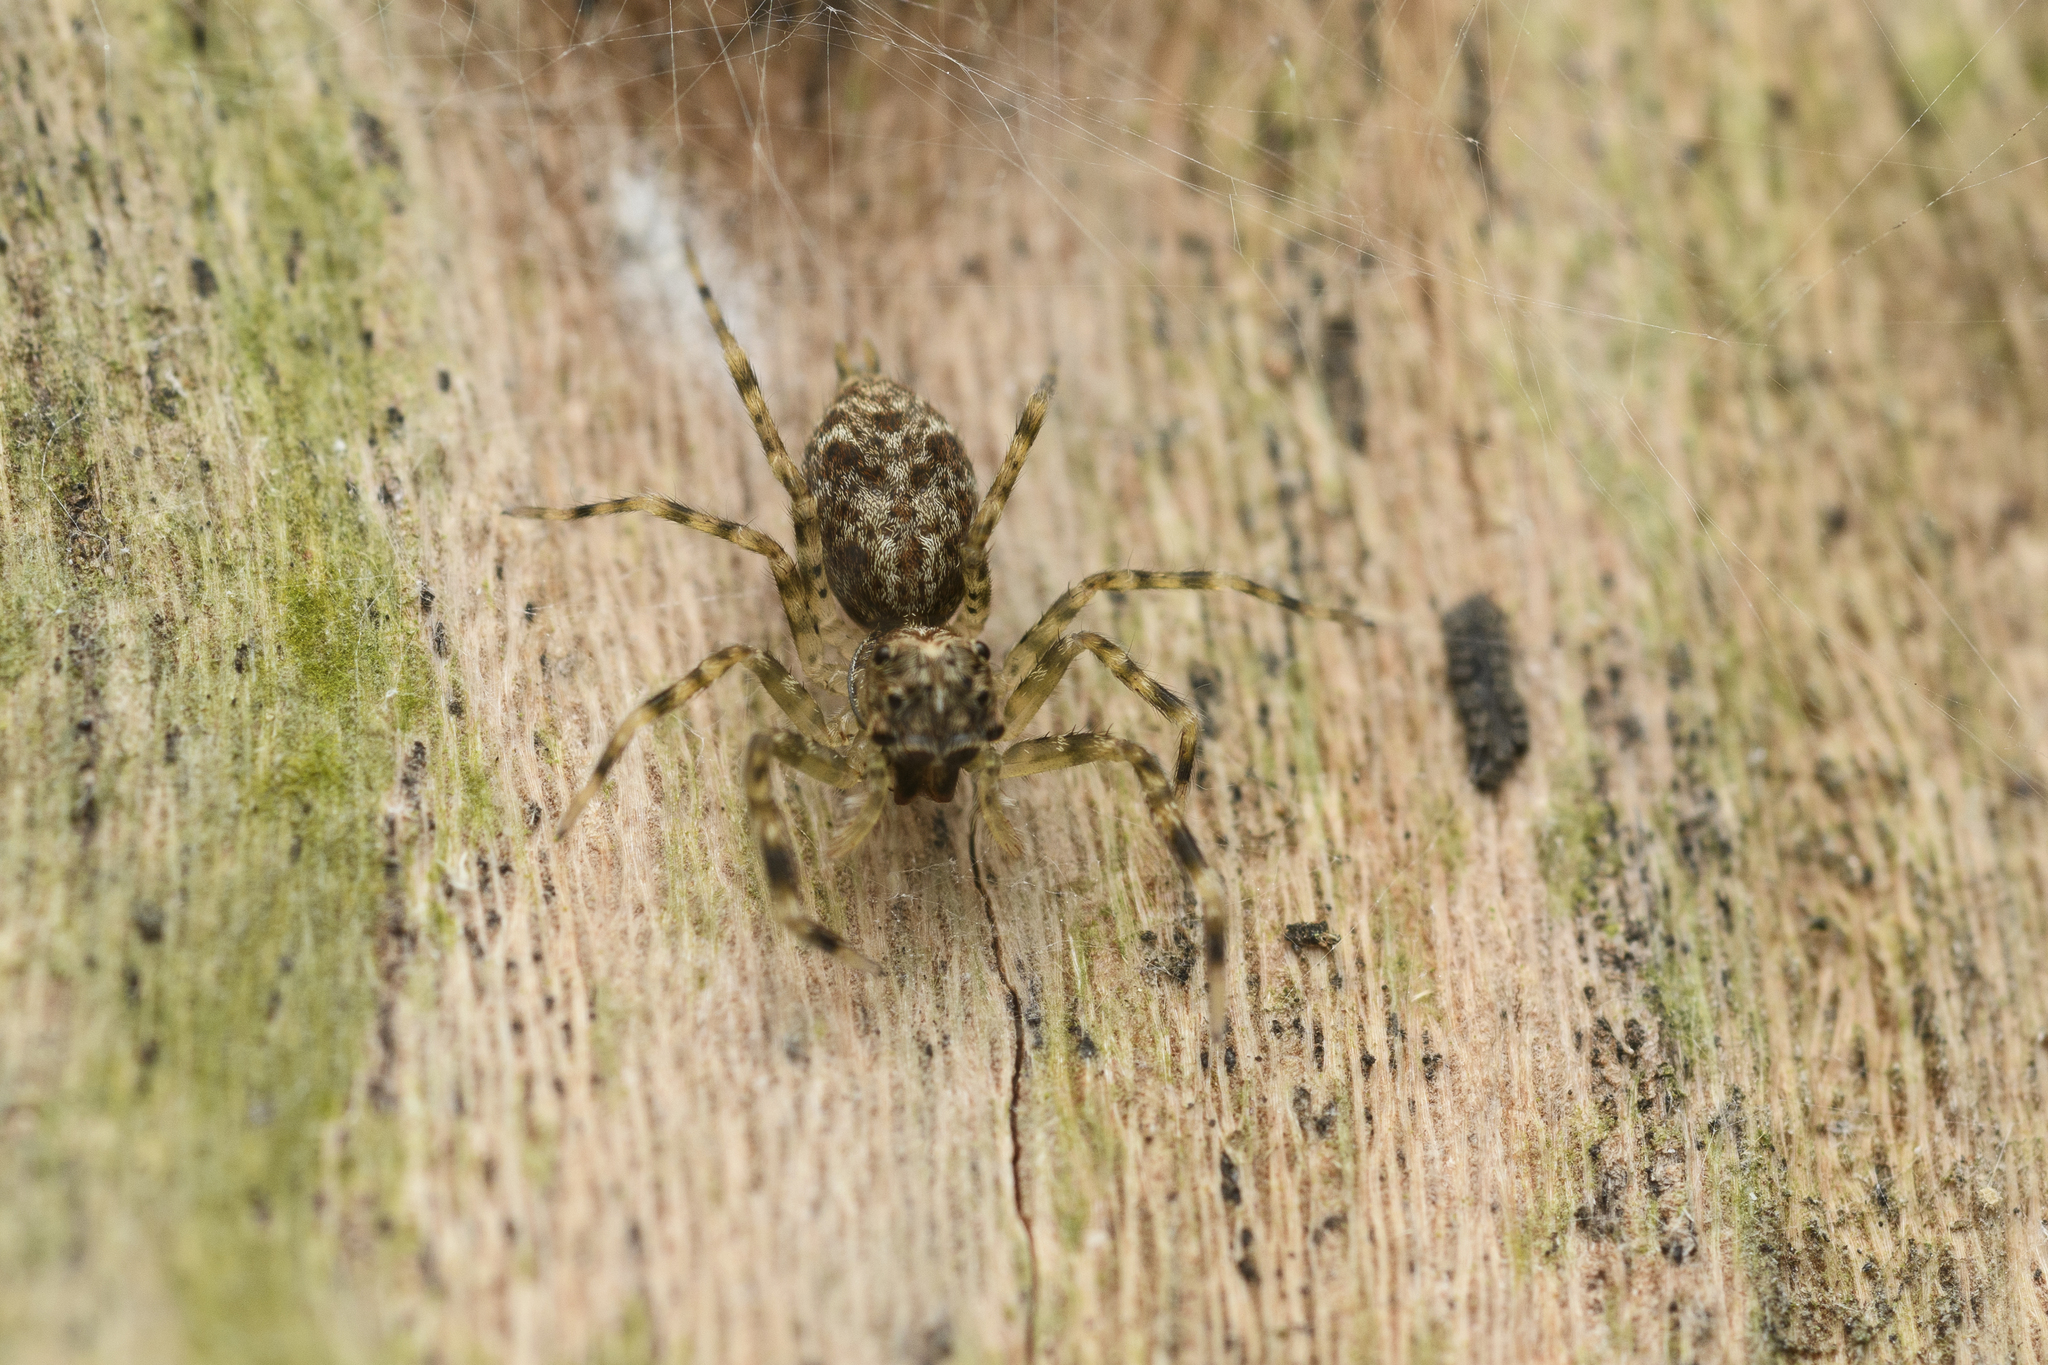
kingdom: Animalia
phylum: Arthropoda
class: Arachnida
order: Araneae
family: Salticidae
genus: Spartaeus
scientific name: Spartaeus zhangi
